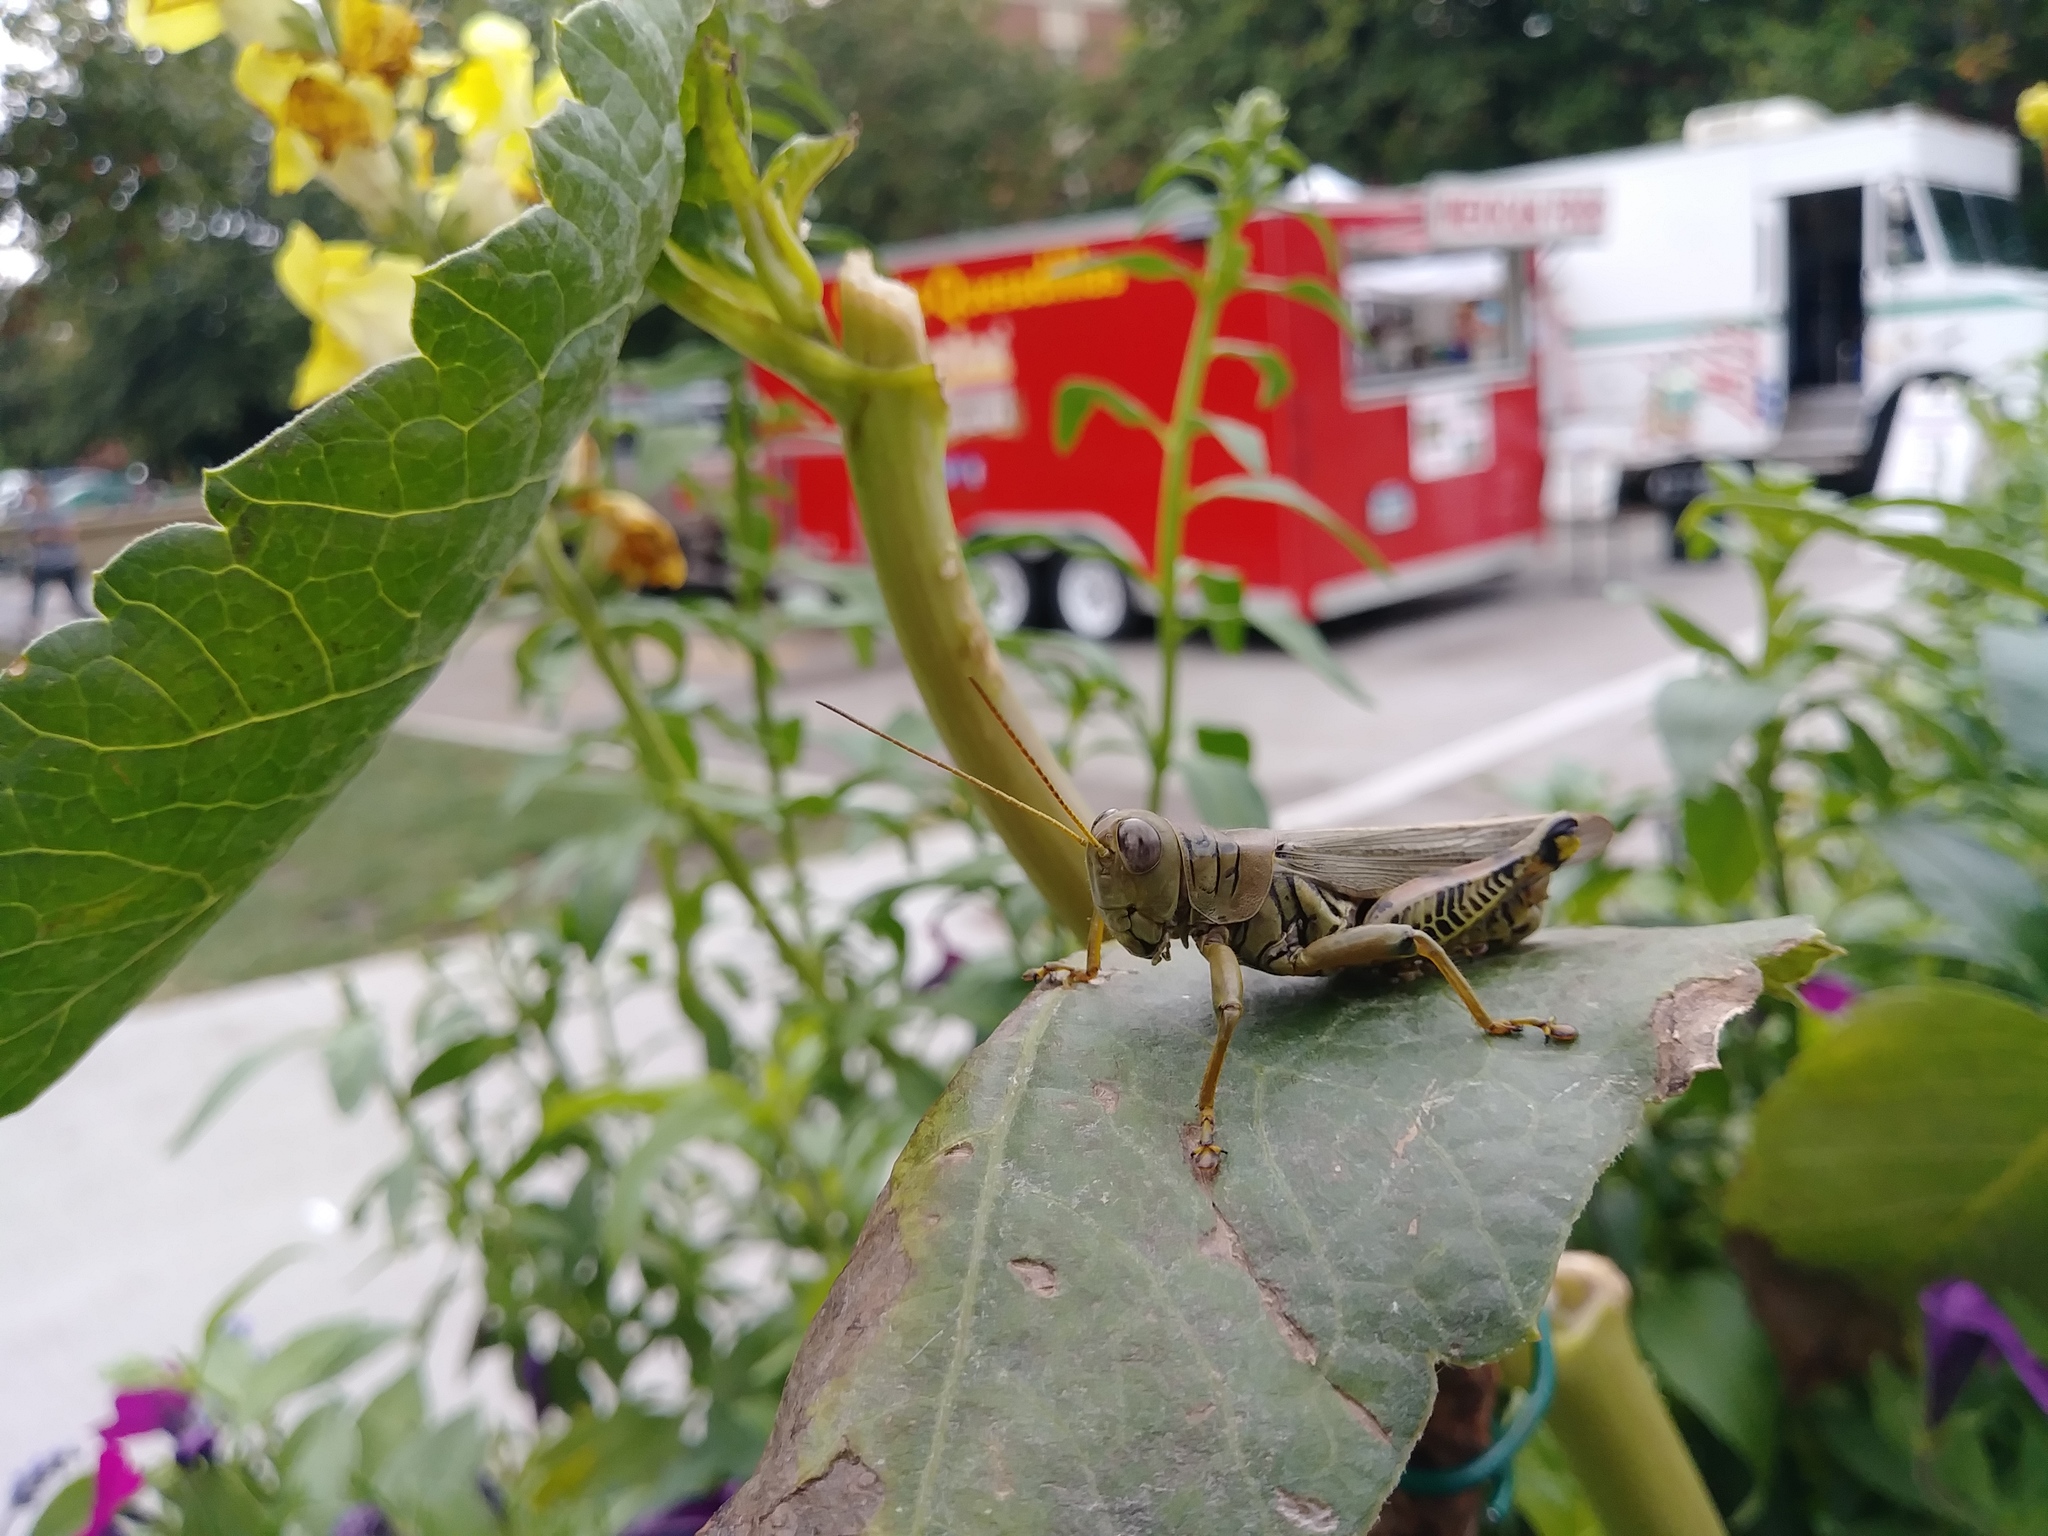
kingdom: Animalia
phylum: Arthropoda
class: Insecta
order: Orthoptera
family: Acrididae
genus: Melanoplus
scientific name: Melanoplus differentialis
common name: Differential grasshopper
